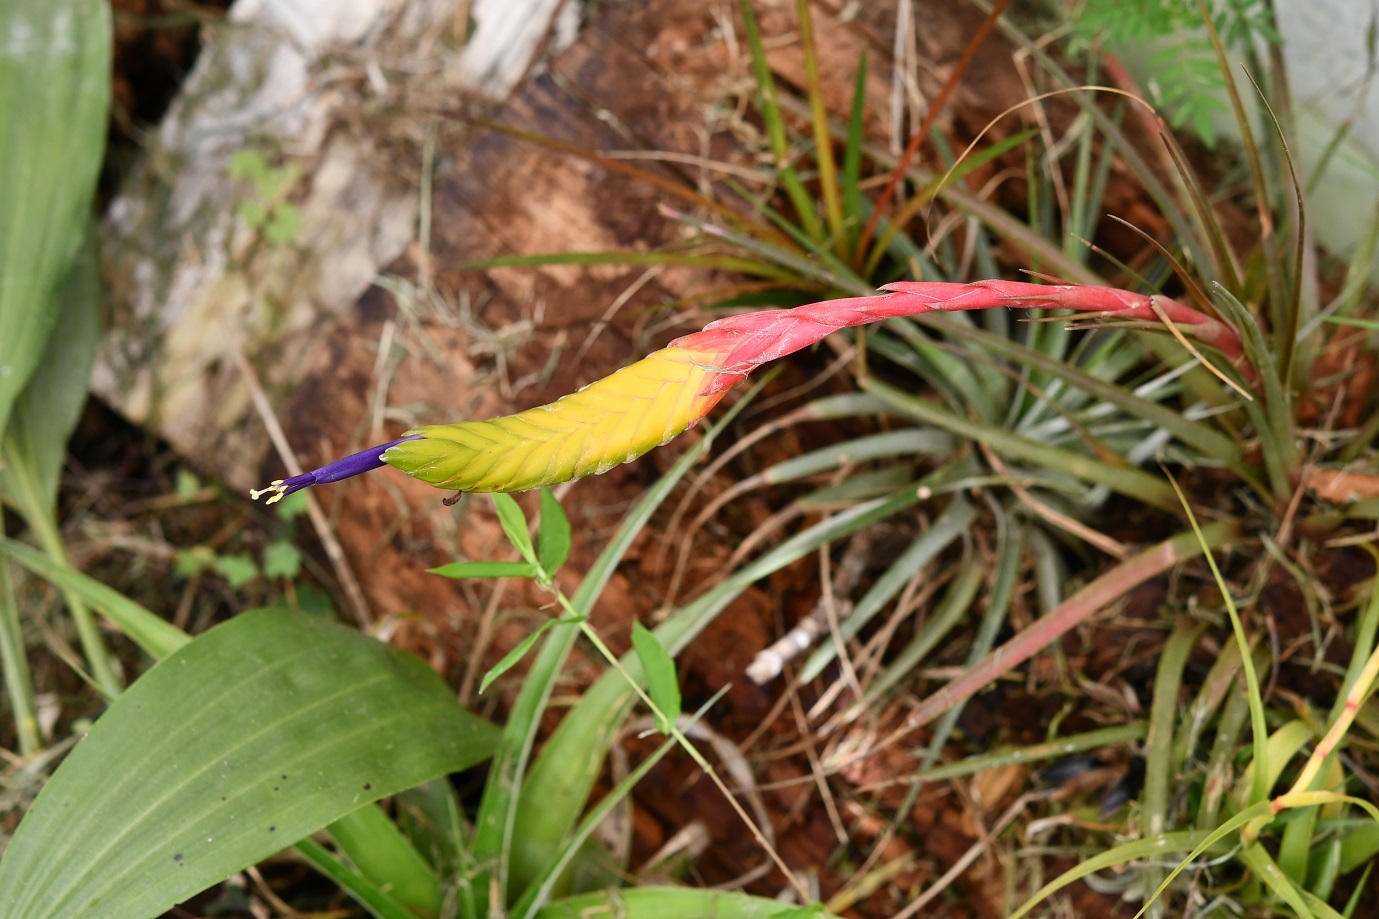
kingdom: Plantae
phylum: Tracheophyta
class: Liliopsida
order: Poales
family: Bromeliaceae
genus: Tillandsia
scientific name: Tillandsia tricolor
